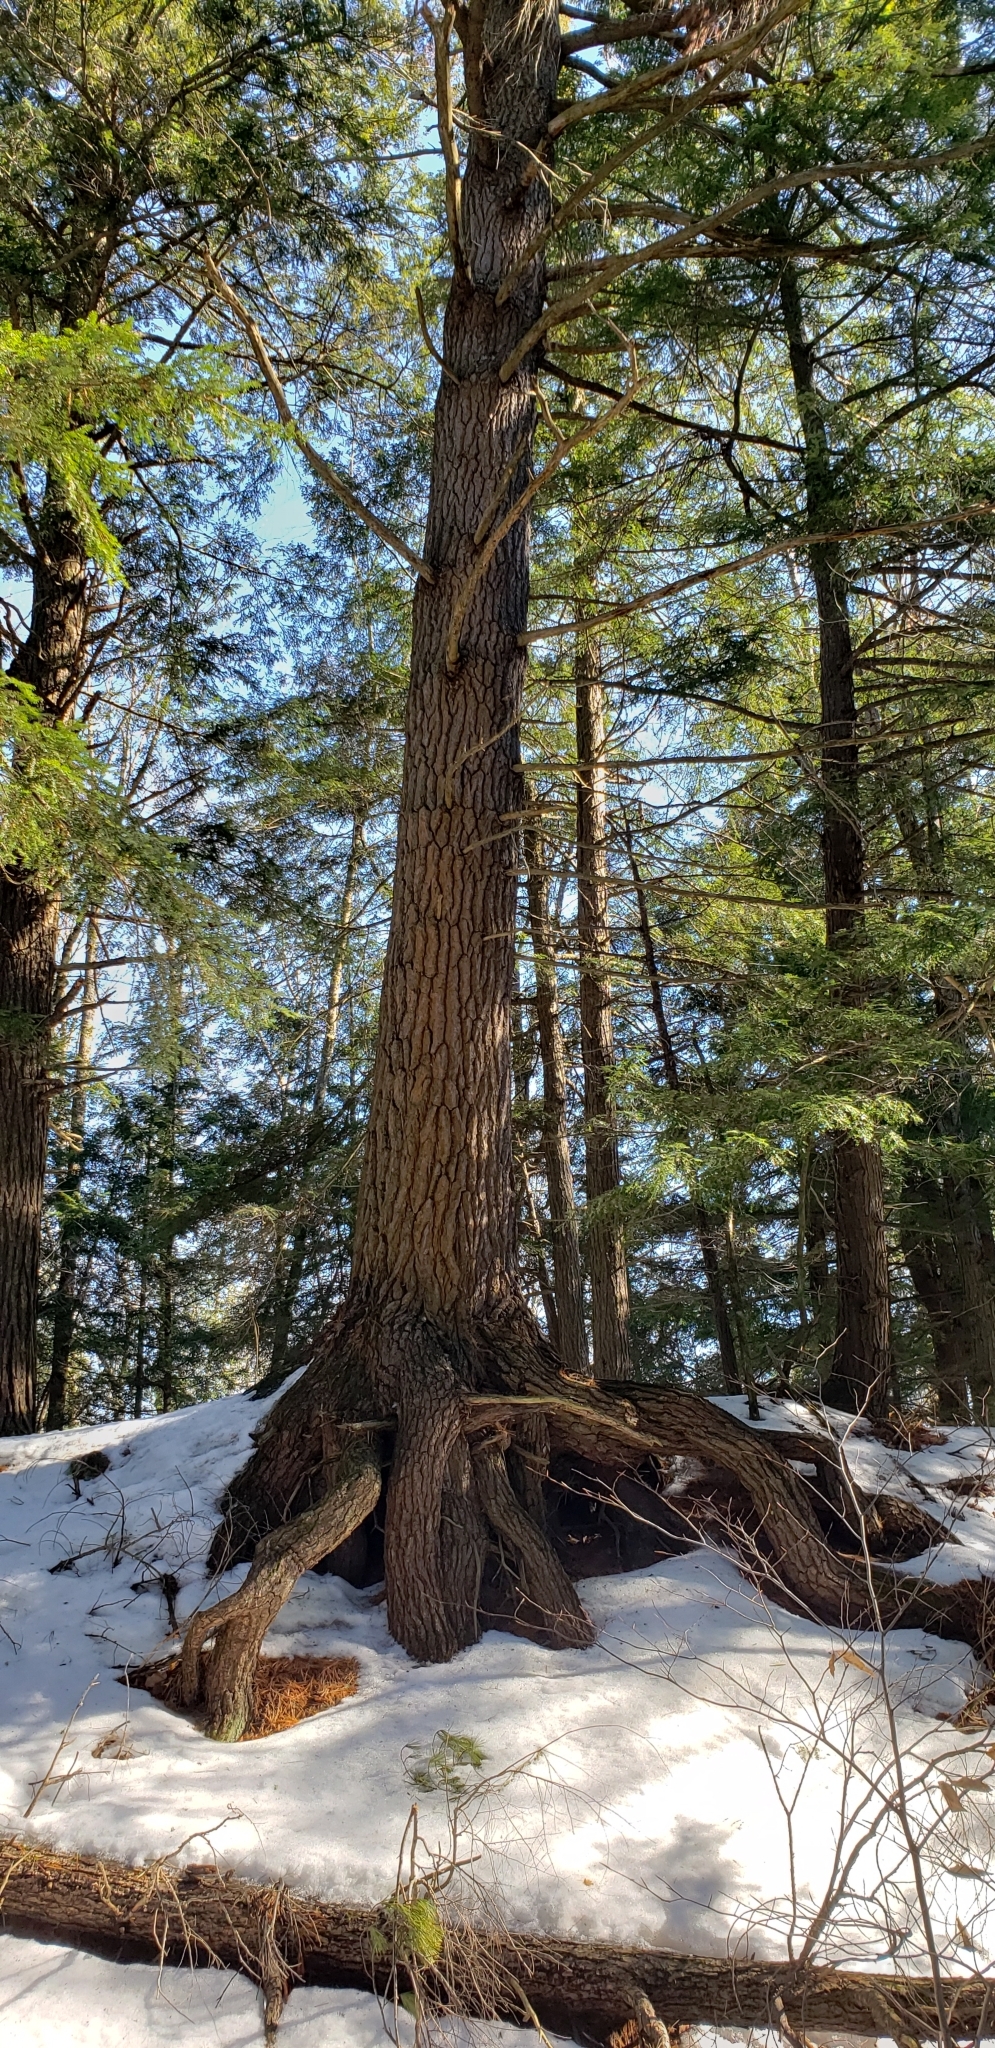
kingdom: Plantae
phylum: Tracheophyta
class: Pinopsida
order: Pinales
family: Pinaceae
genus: Pinus
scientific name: Pinus strobus
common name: Weymouth pine
